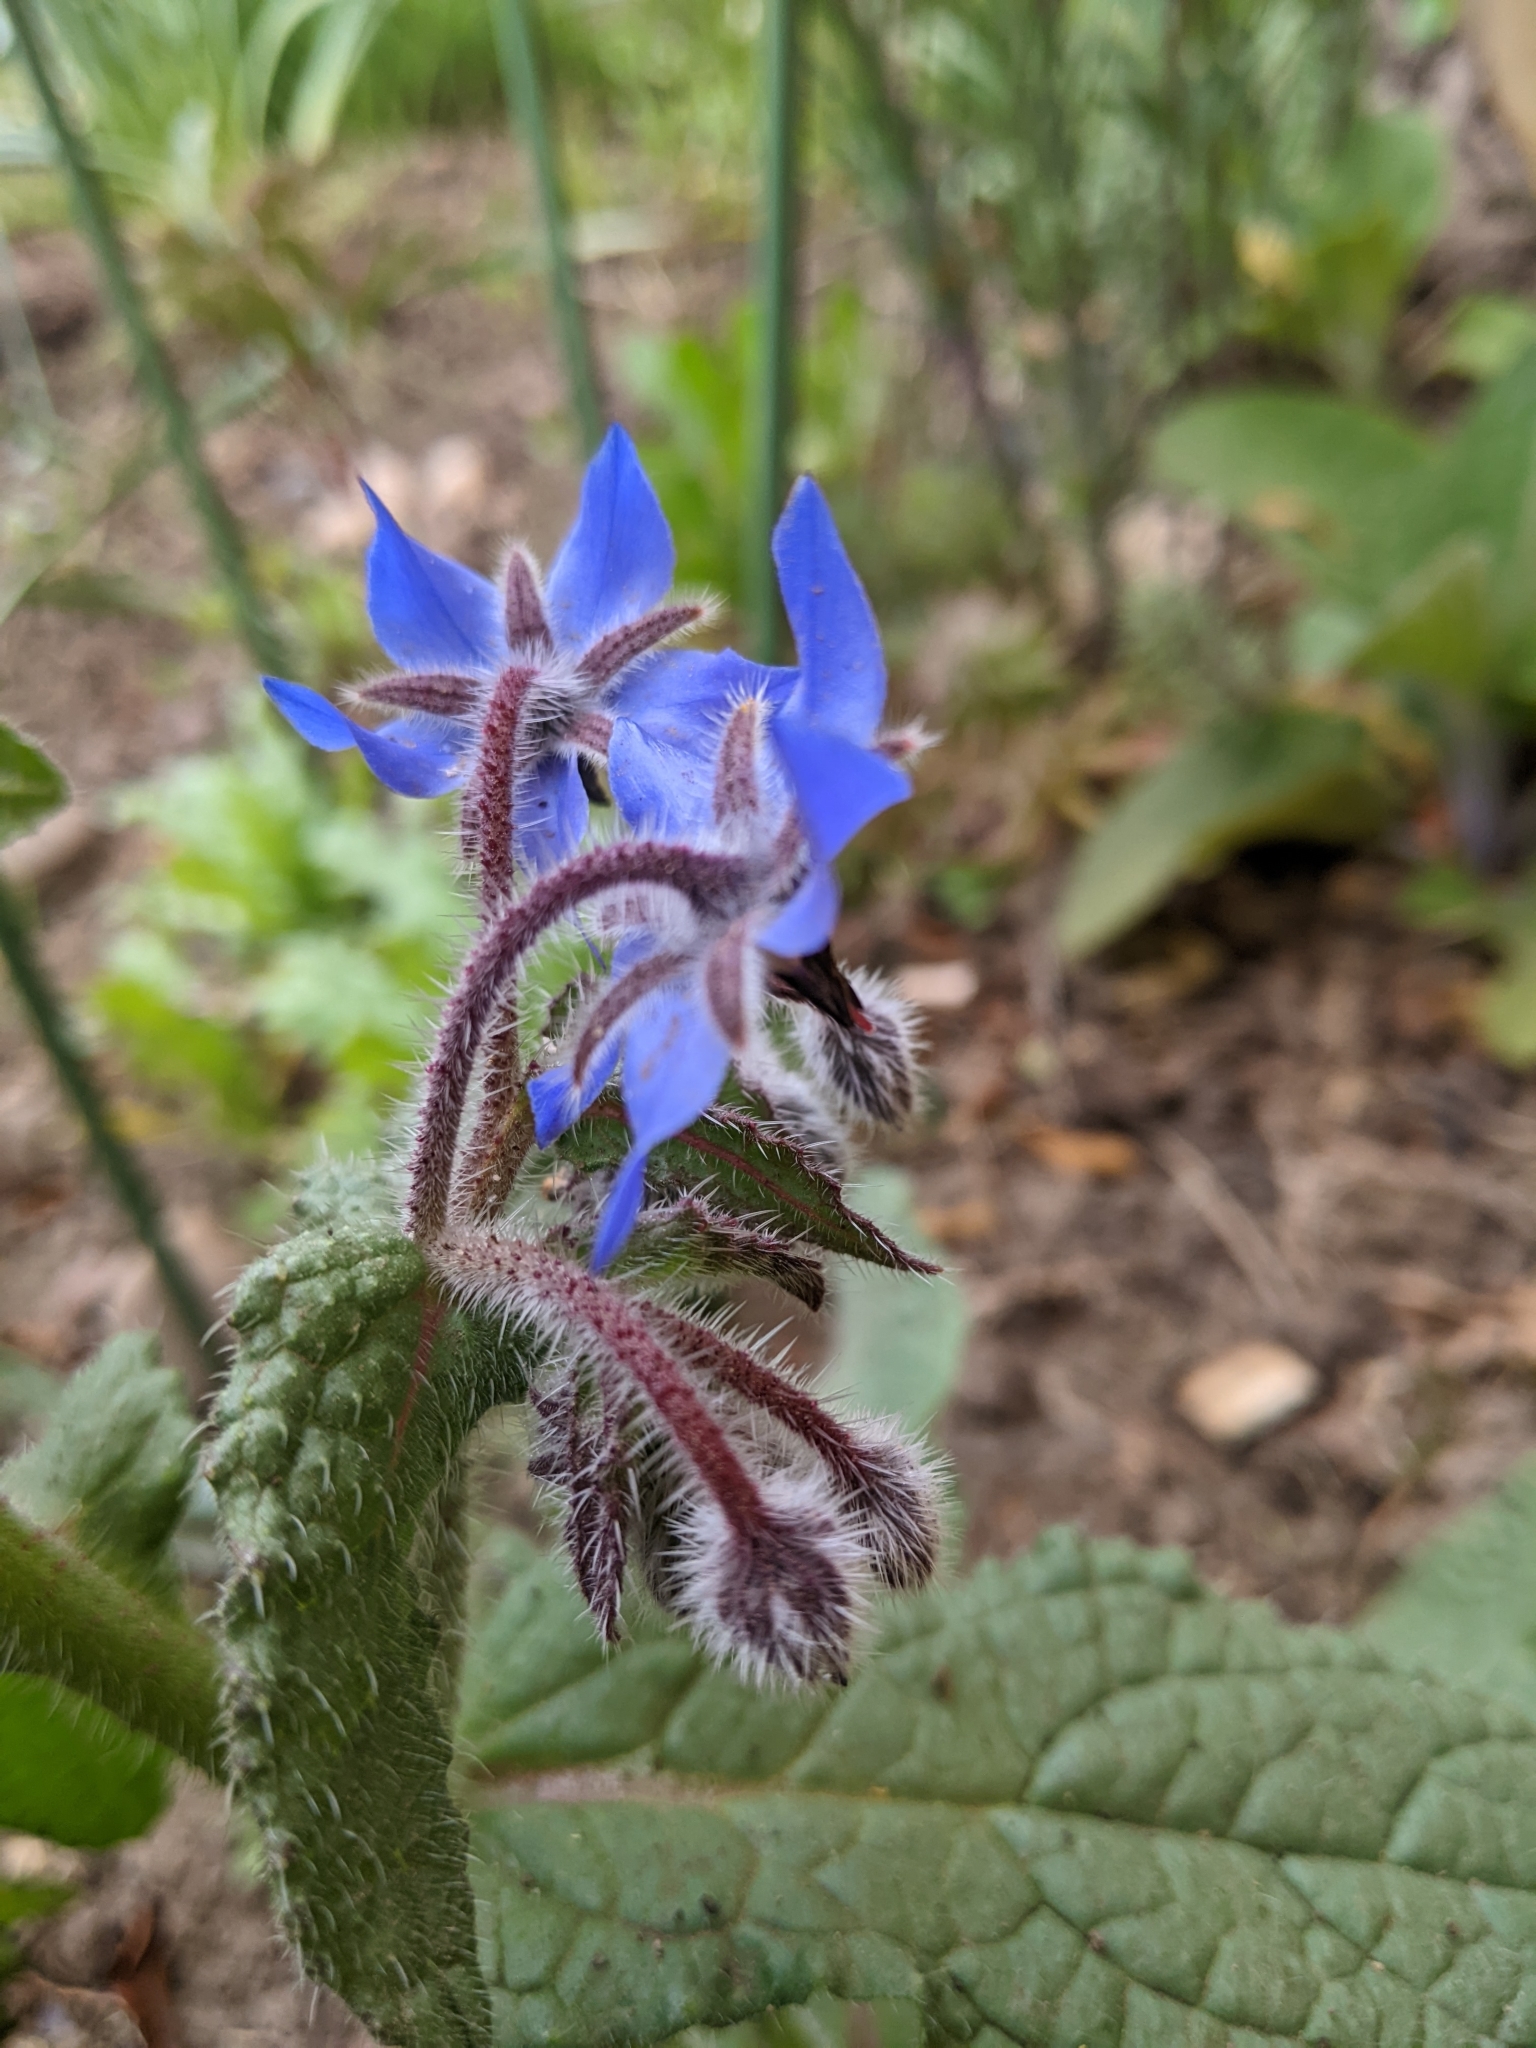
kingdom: Plantae
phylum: Tracheophyta
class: Magnoliopsida
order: Boraginales
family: Boraginaceae
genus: Borago
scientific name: Borago officinalis
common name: Borage
